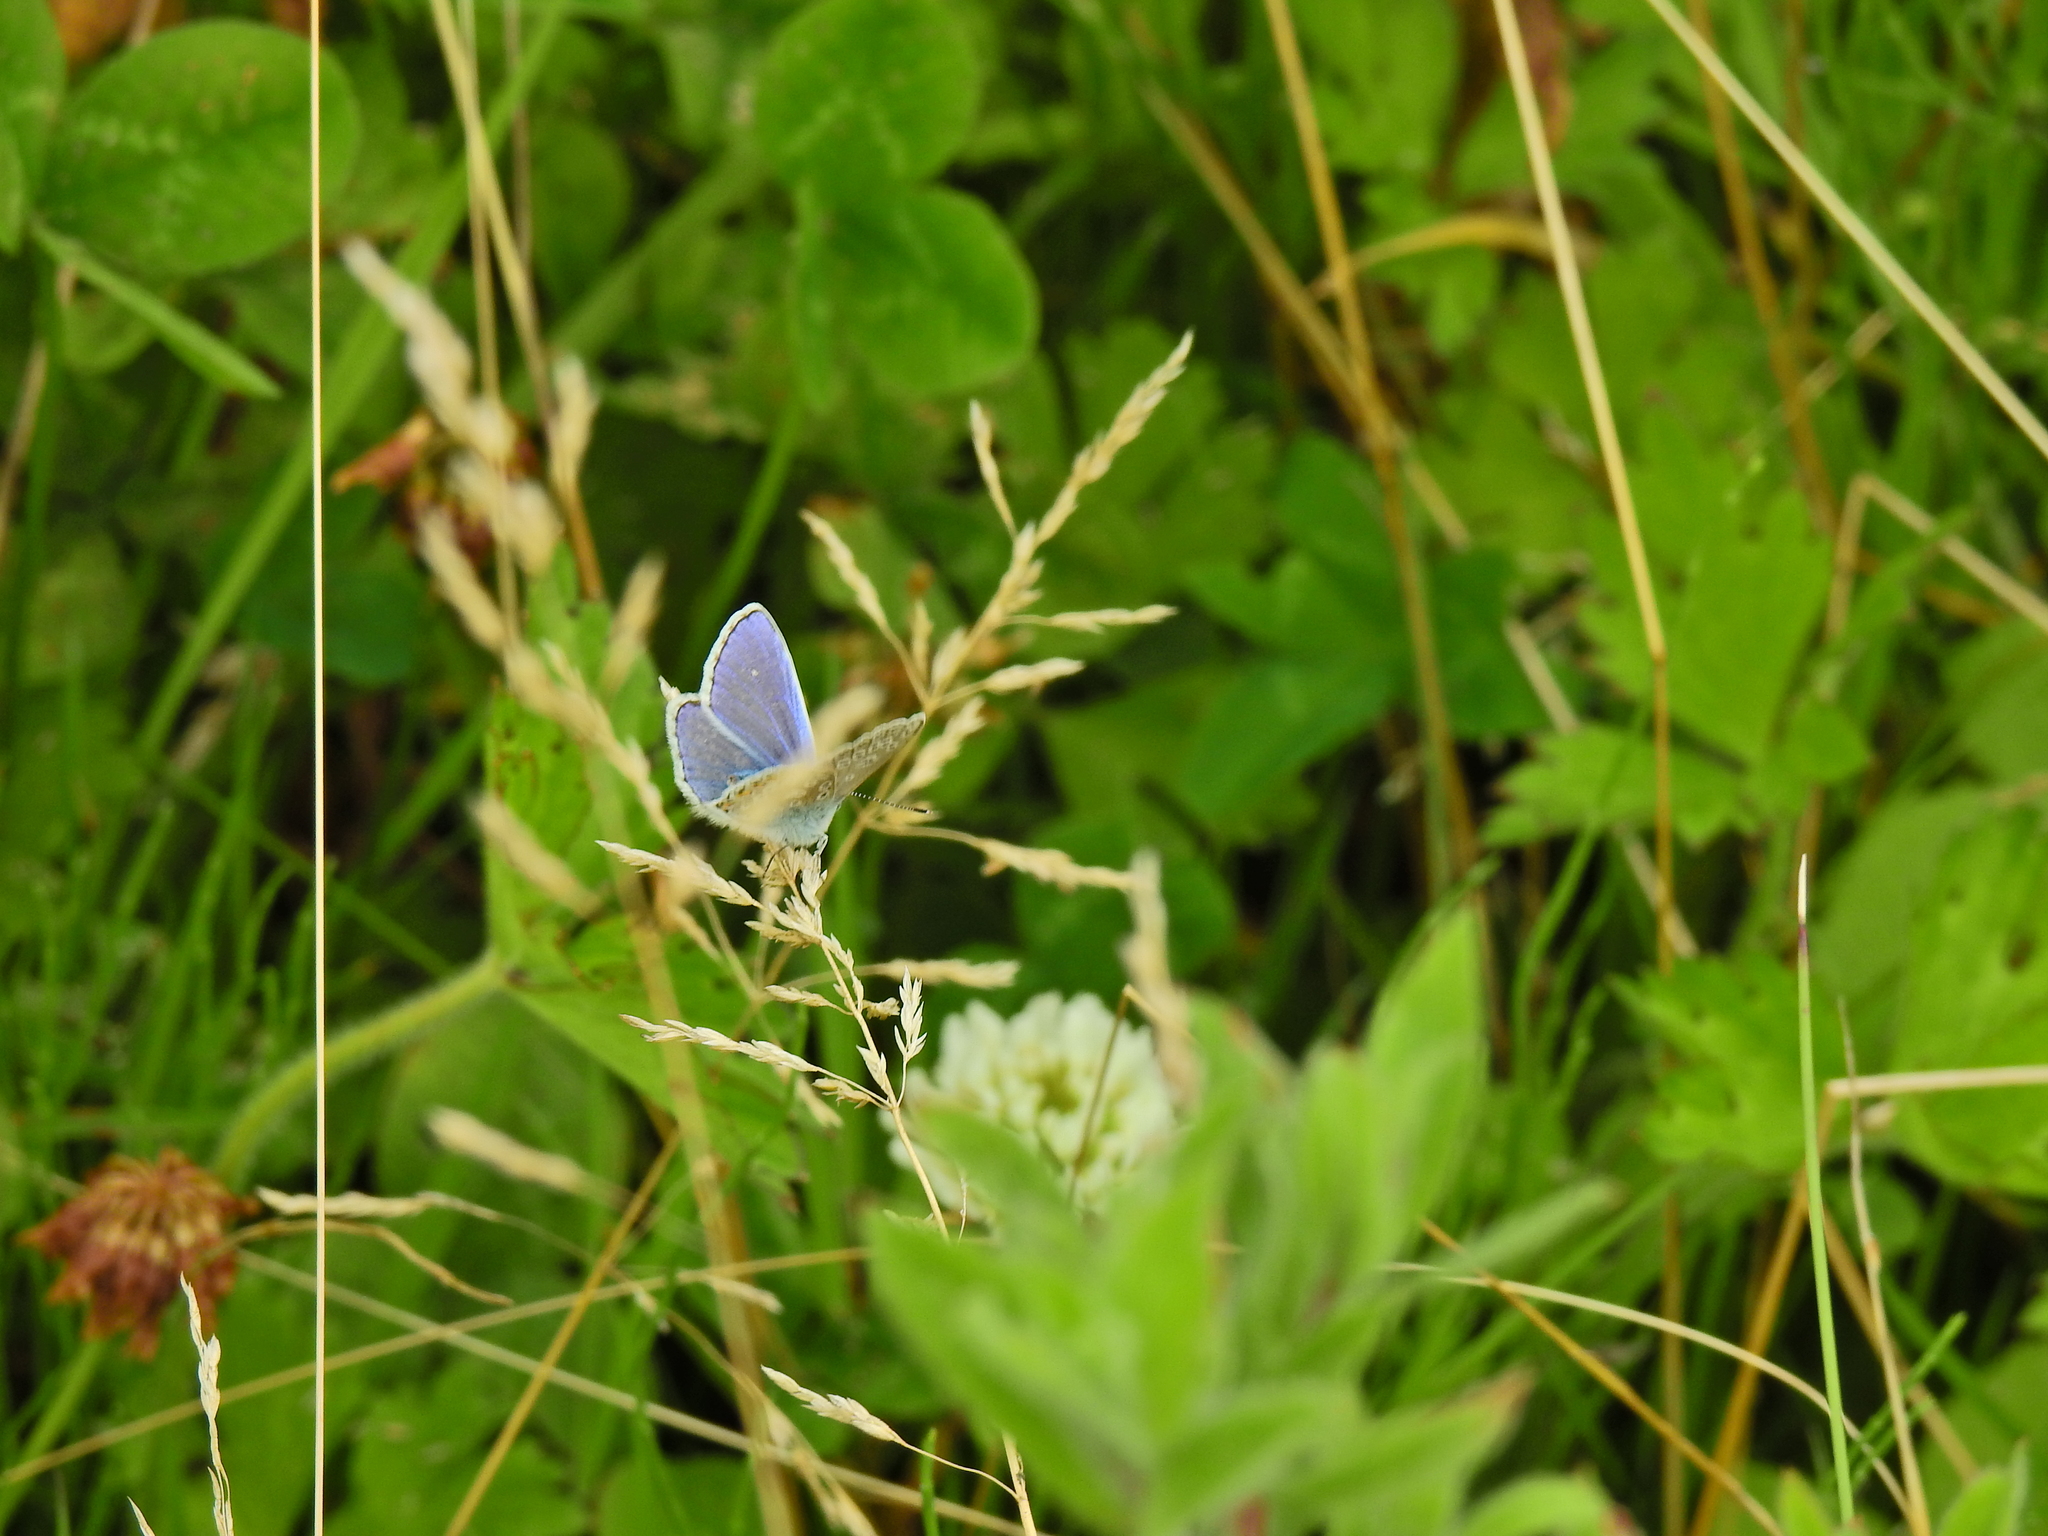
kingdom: Animalia
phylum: Arthropoda
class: Insecta
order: Lepidoptera
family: Lycaenidae
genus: Polyommatus
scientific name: Polyommatus icarus
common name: Common blue
